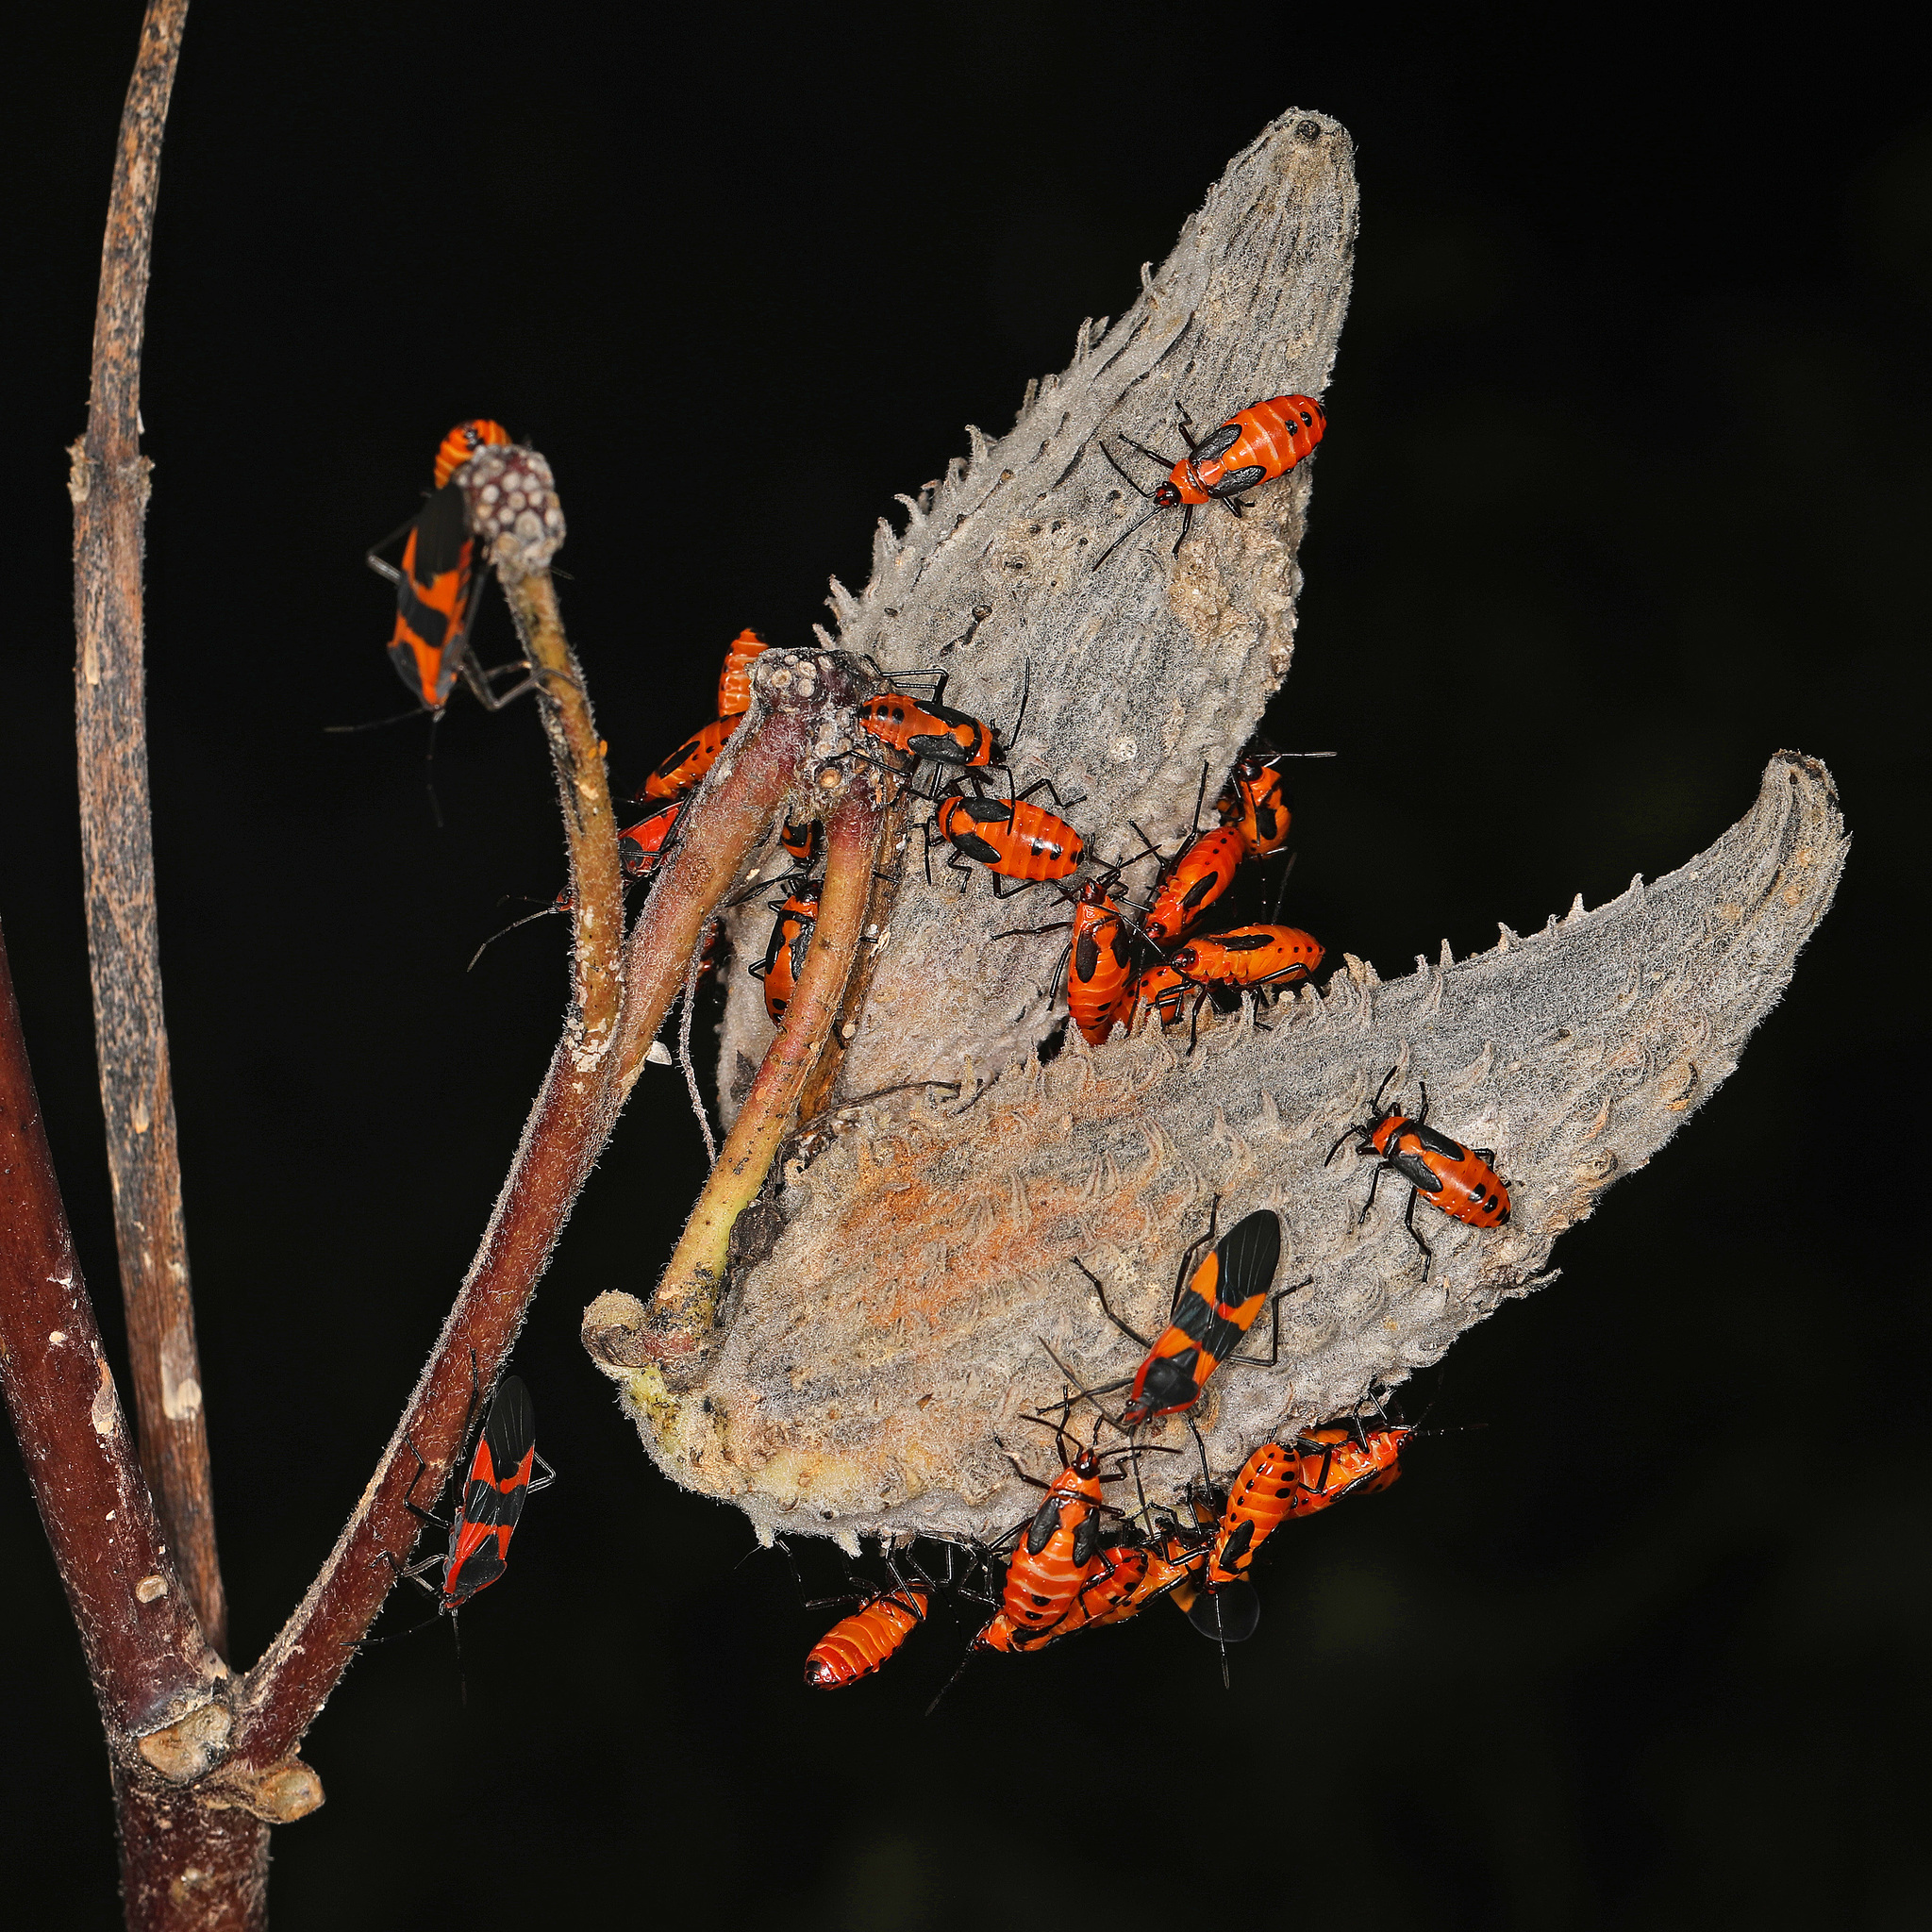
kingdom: Animalia
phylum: Arthropoda
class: Insecta
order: Hemiptera
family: Lygaeidae
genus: Oncopeltus
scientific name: Oncopeltus fasciatus
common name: Large milkweed bug
